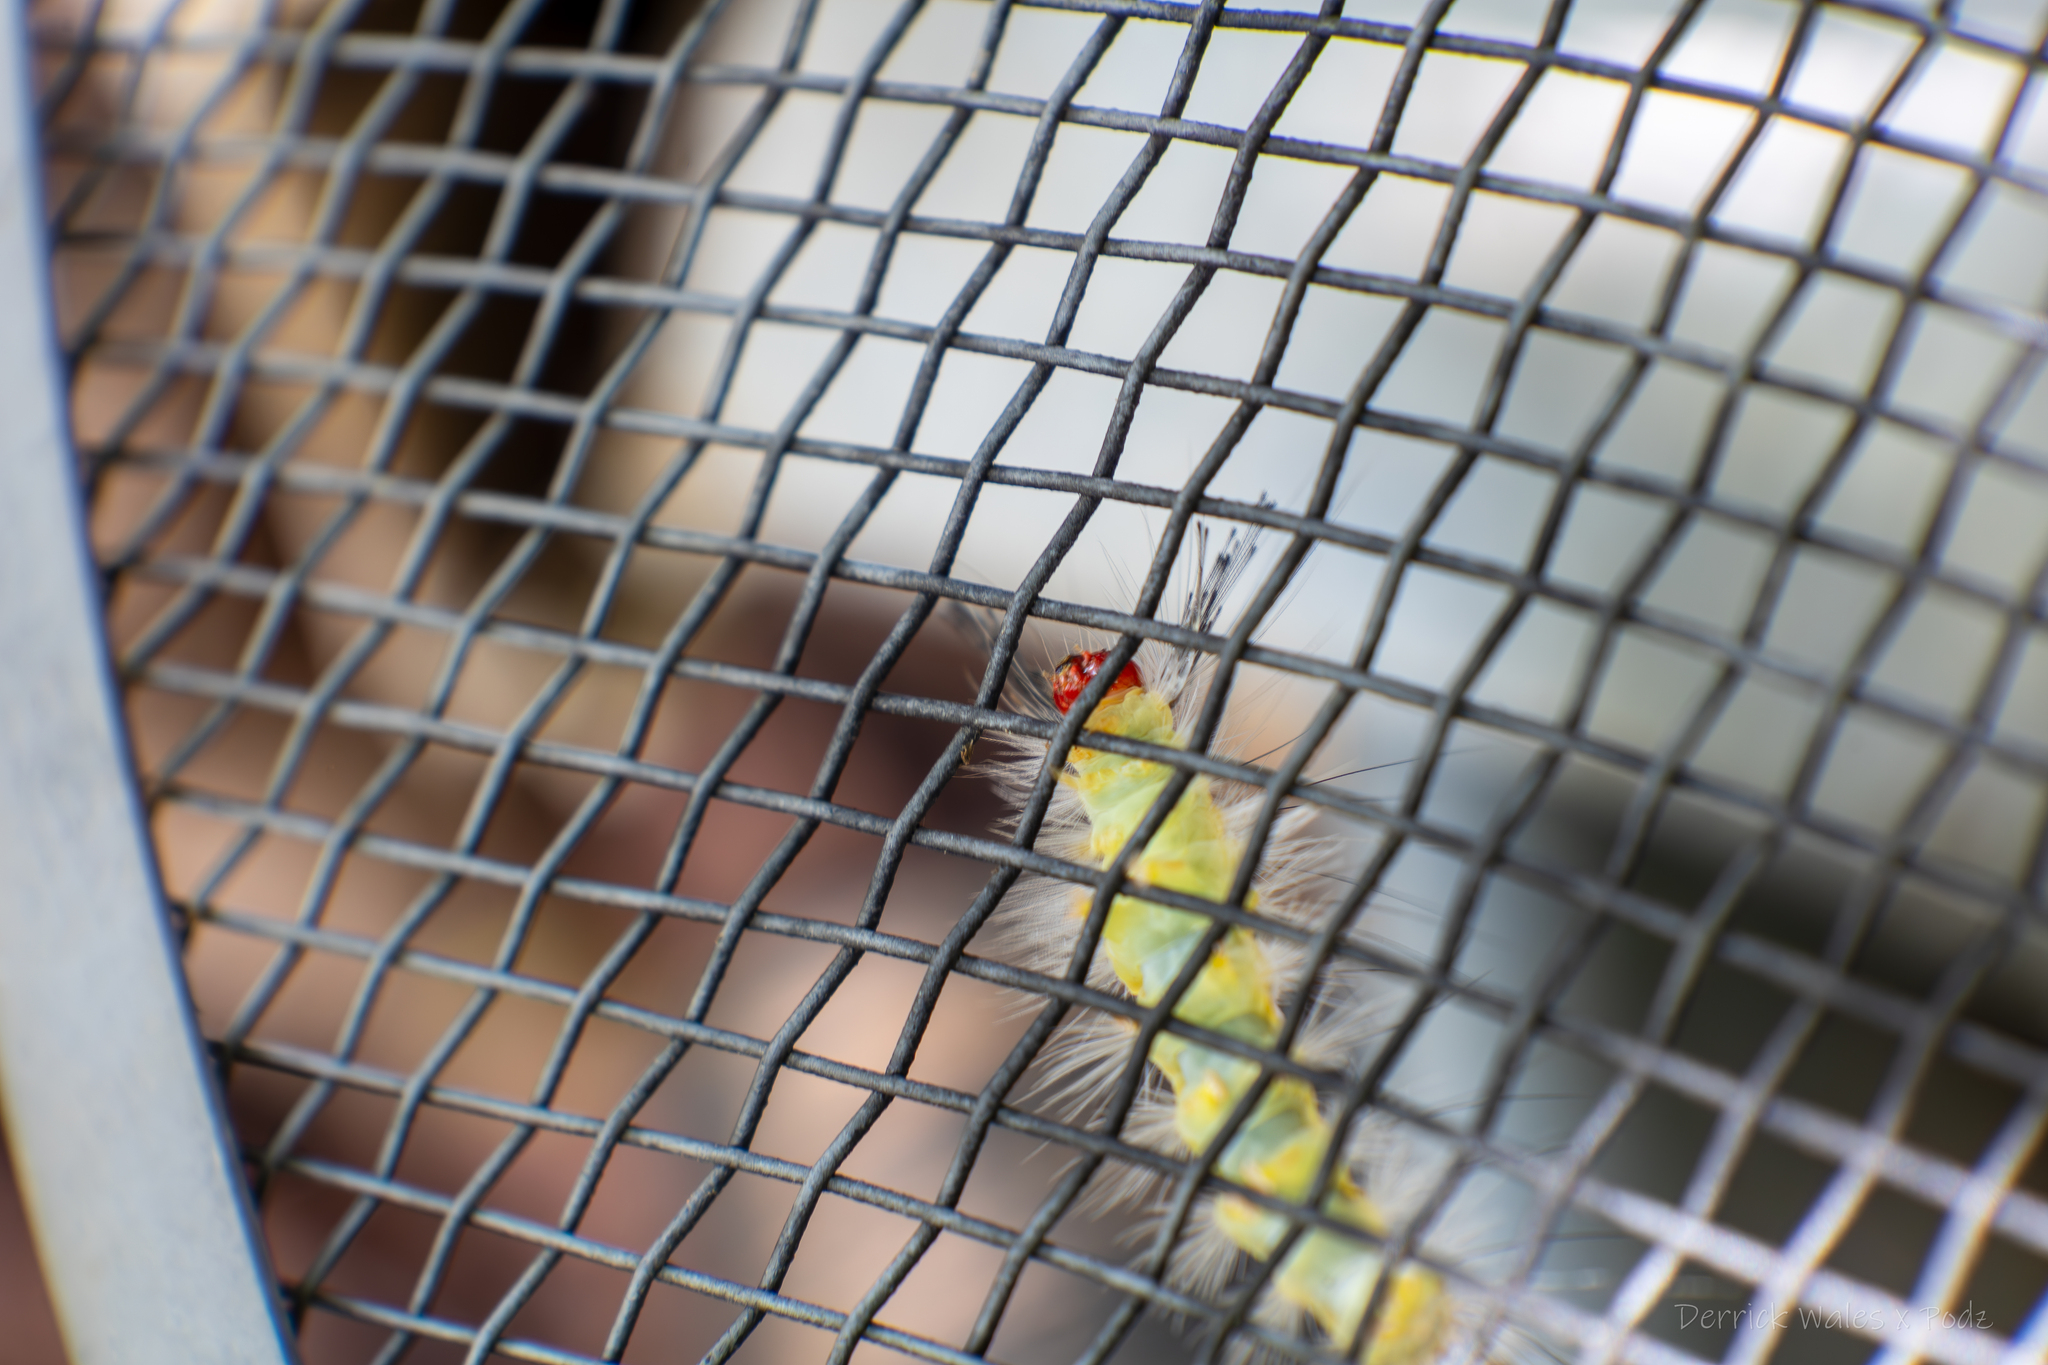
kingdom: Animalia
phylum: Arthropoda
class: Insecta
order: Lepidoptera
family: Erebidae
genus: Orgyia
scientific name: Orgyia leucostigma
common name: White-marked tussock moth
